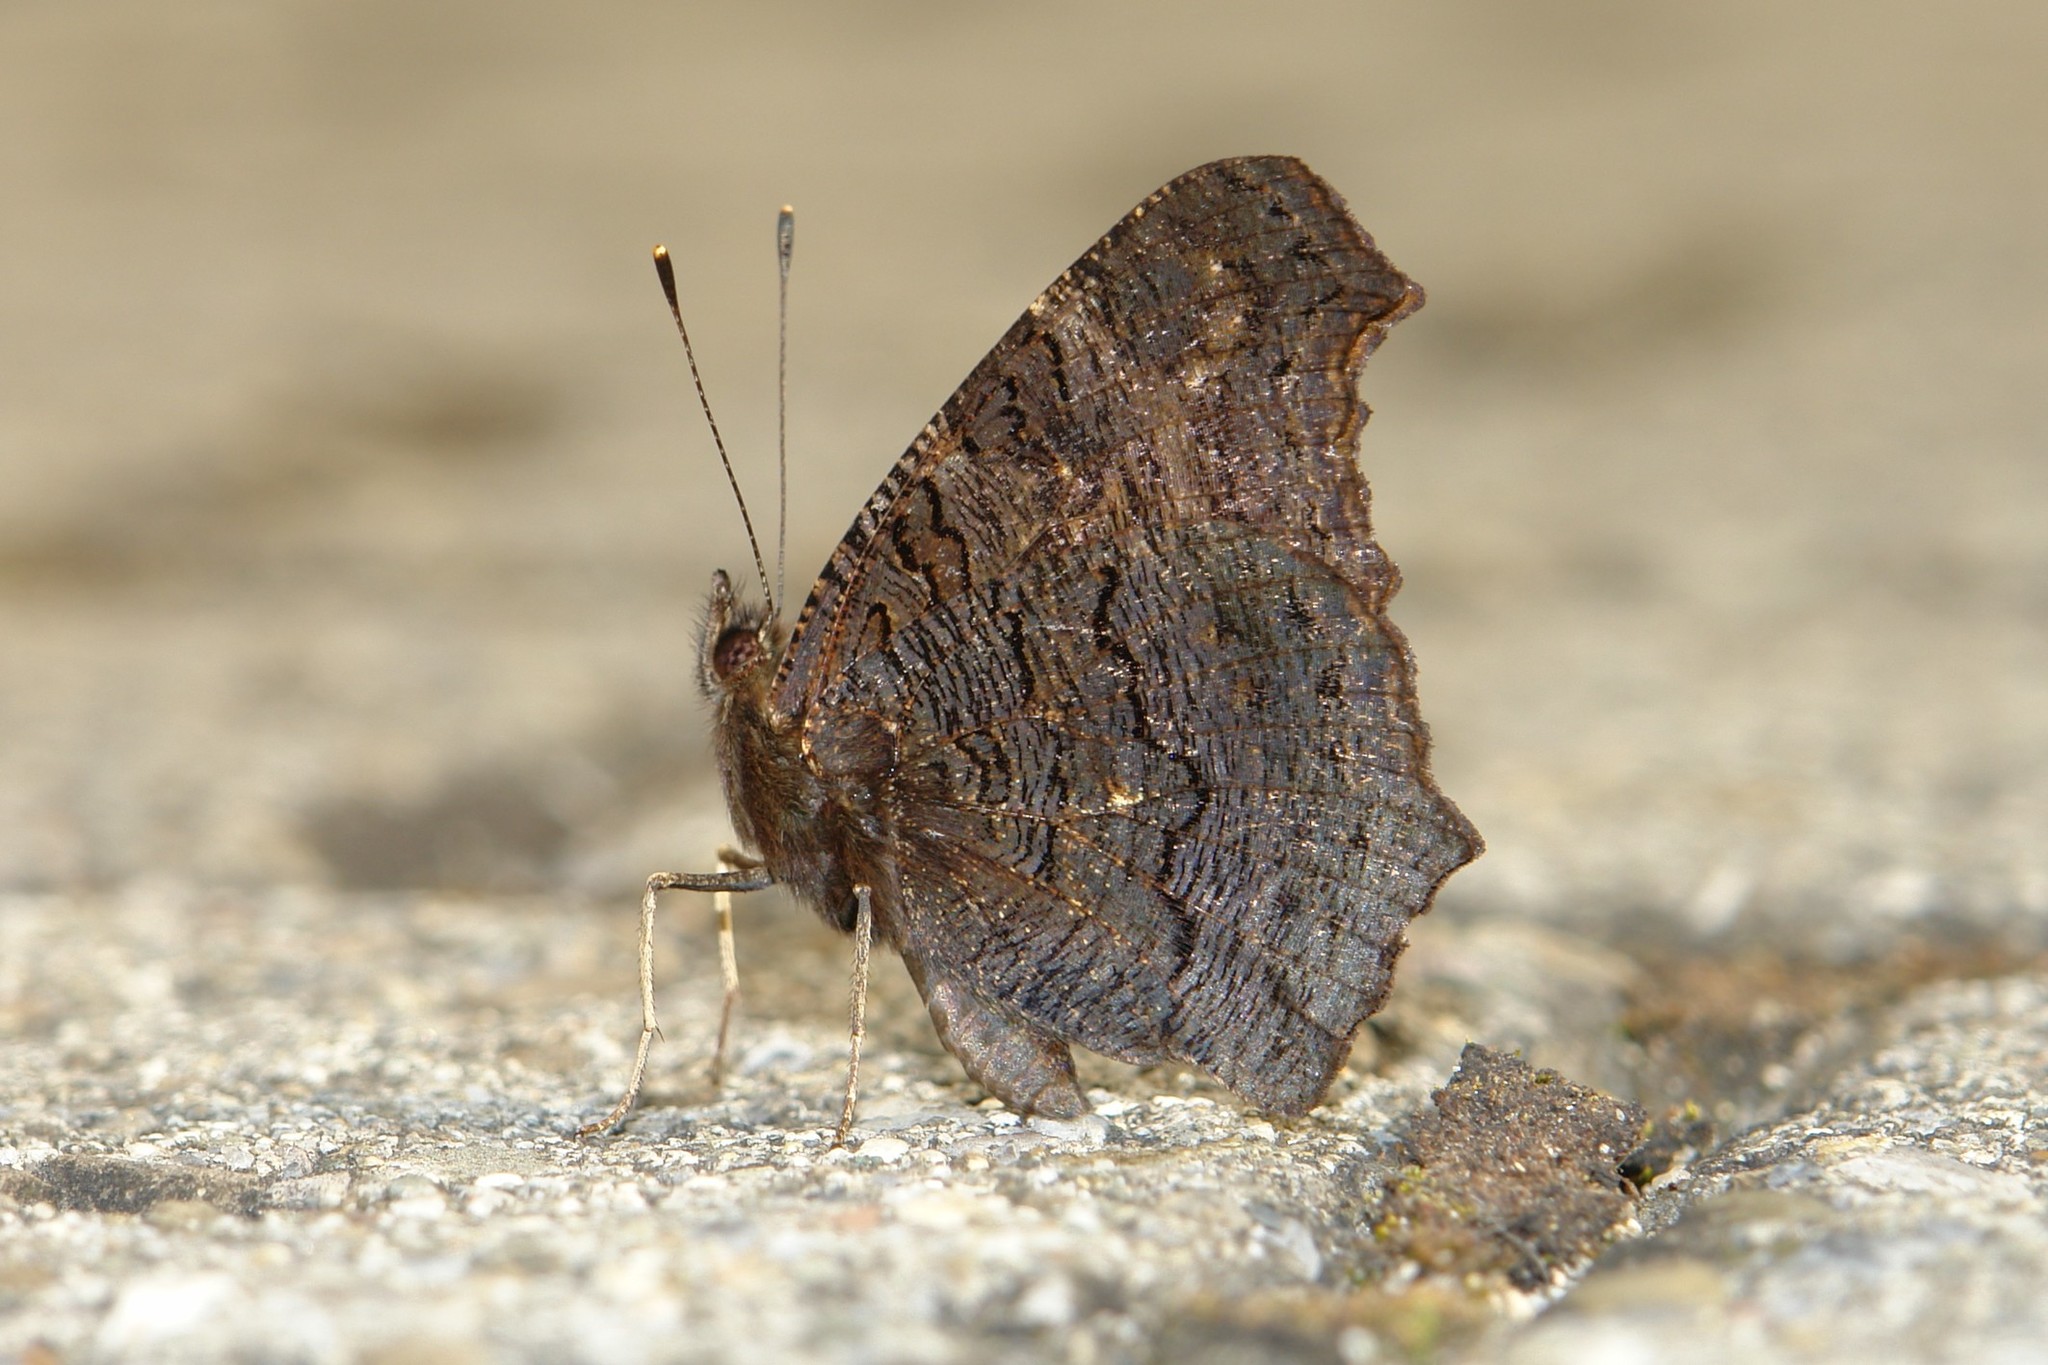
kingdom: Animalia
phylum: Arthropoda
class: Insecta
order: Lepidoptera
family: Nymphalidae
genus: Aglais
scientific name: Aglais io
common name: Peacock
